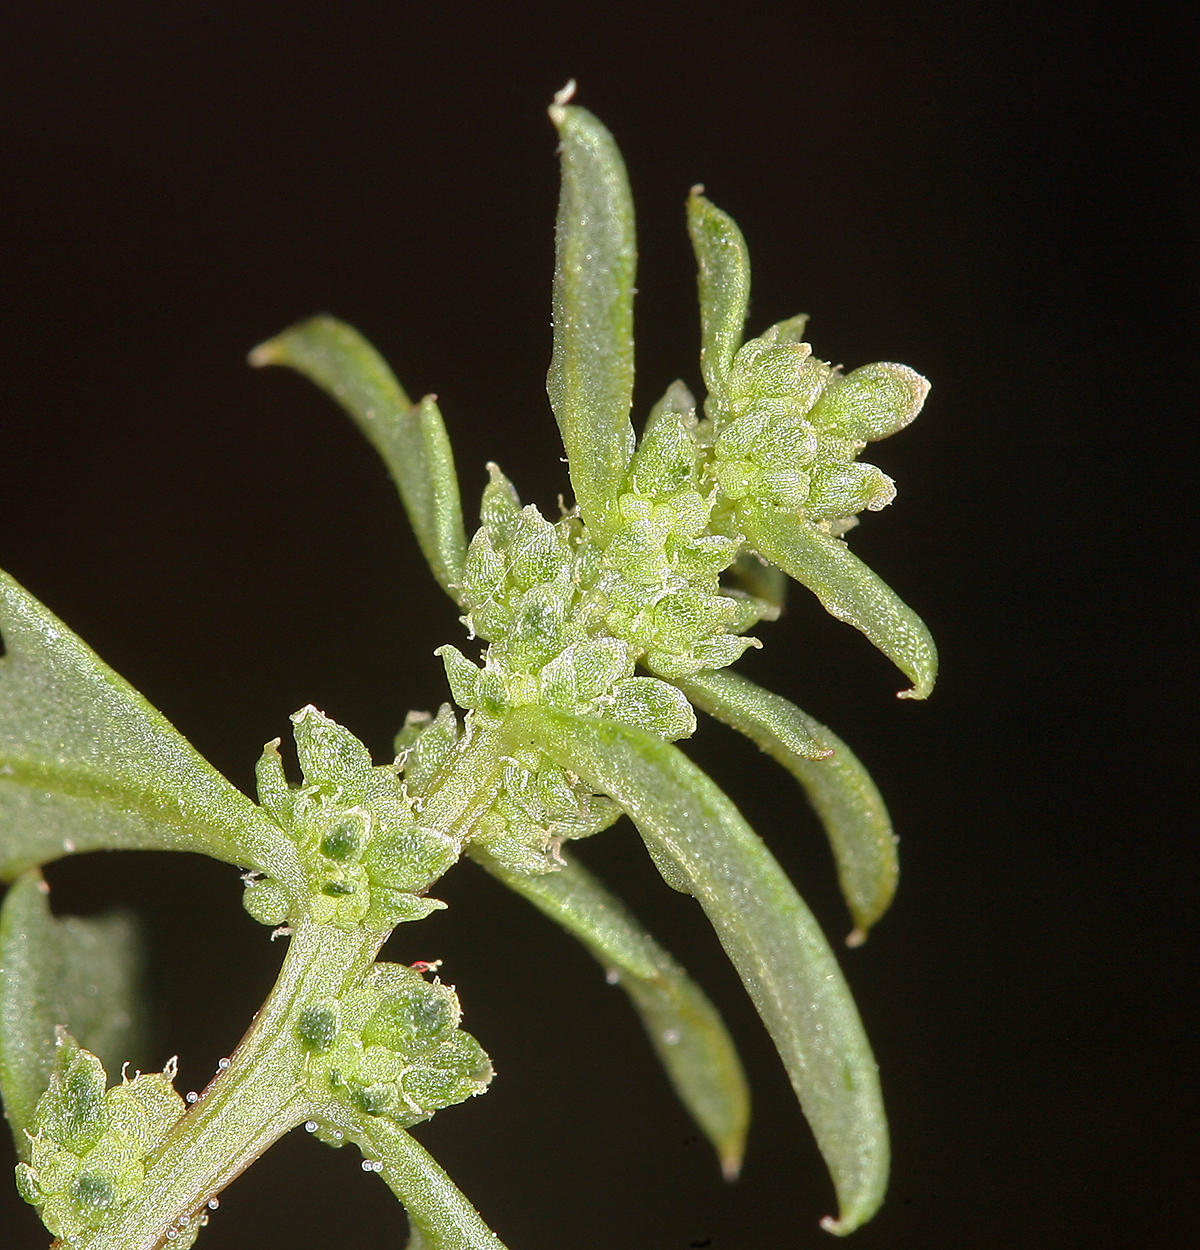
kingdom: Plantae
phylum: Tracheophyta
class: Magnoliopsida
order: Caryophyllales
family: Amaranthaceae
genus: Blitum
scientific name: Blitum nuttallianum
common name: Poverty-weed
